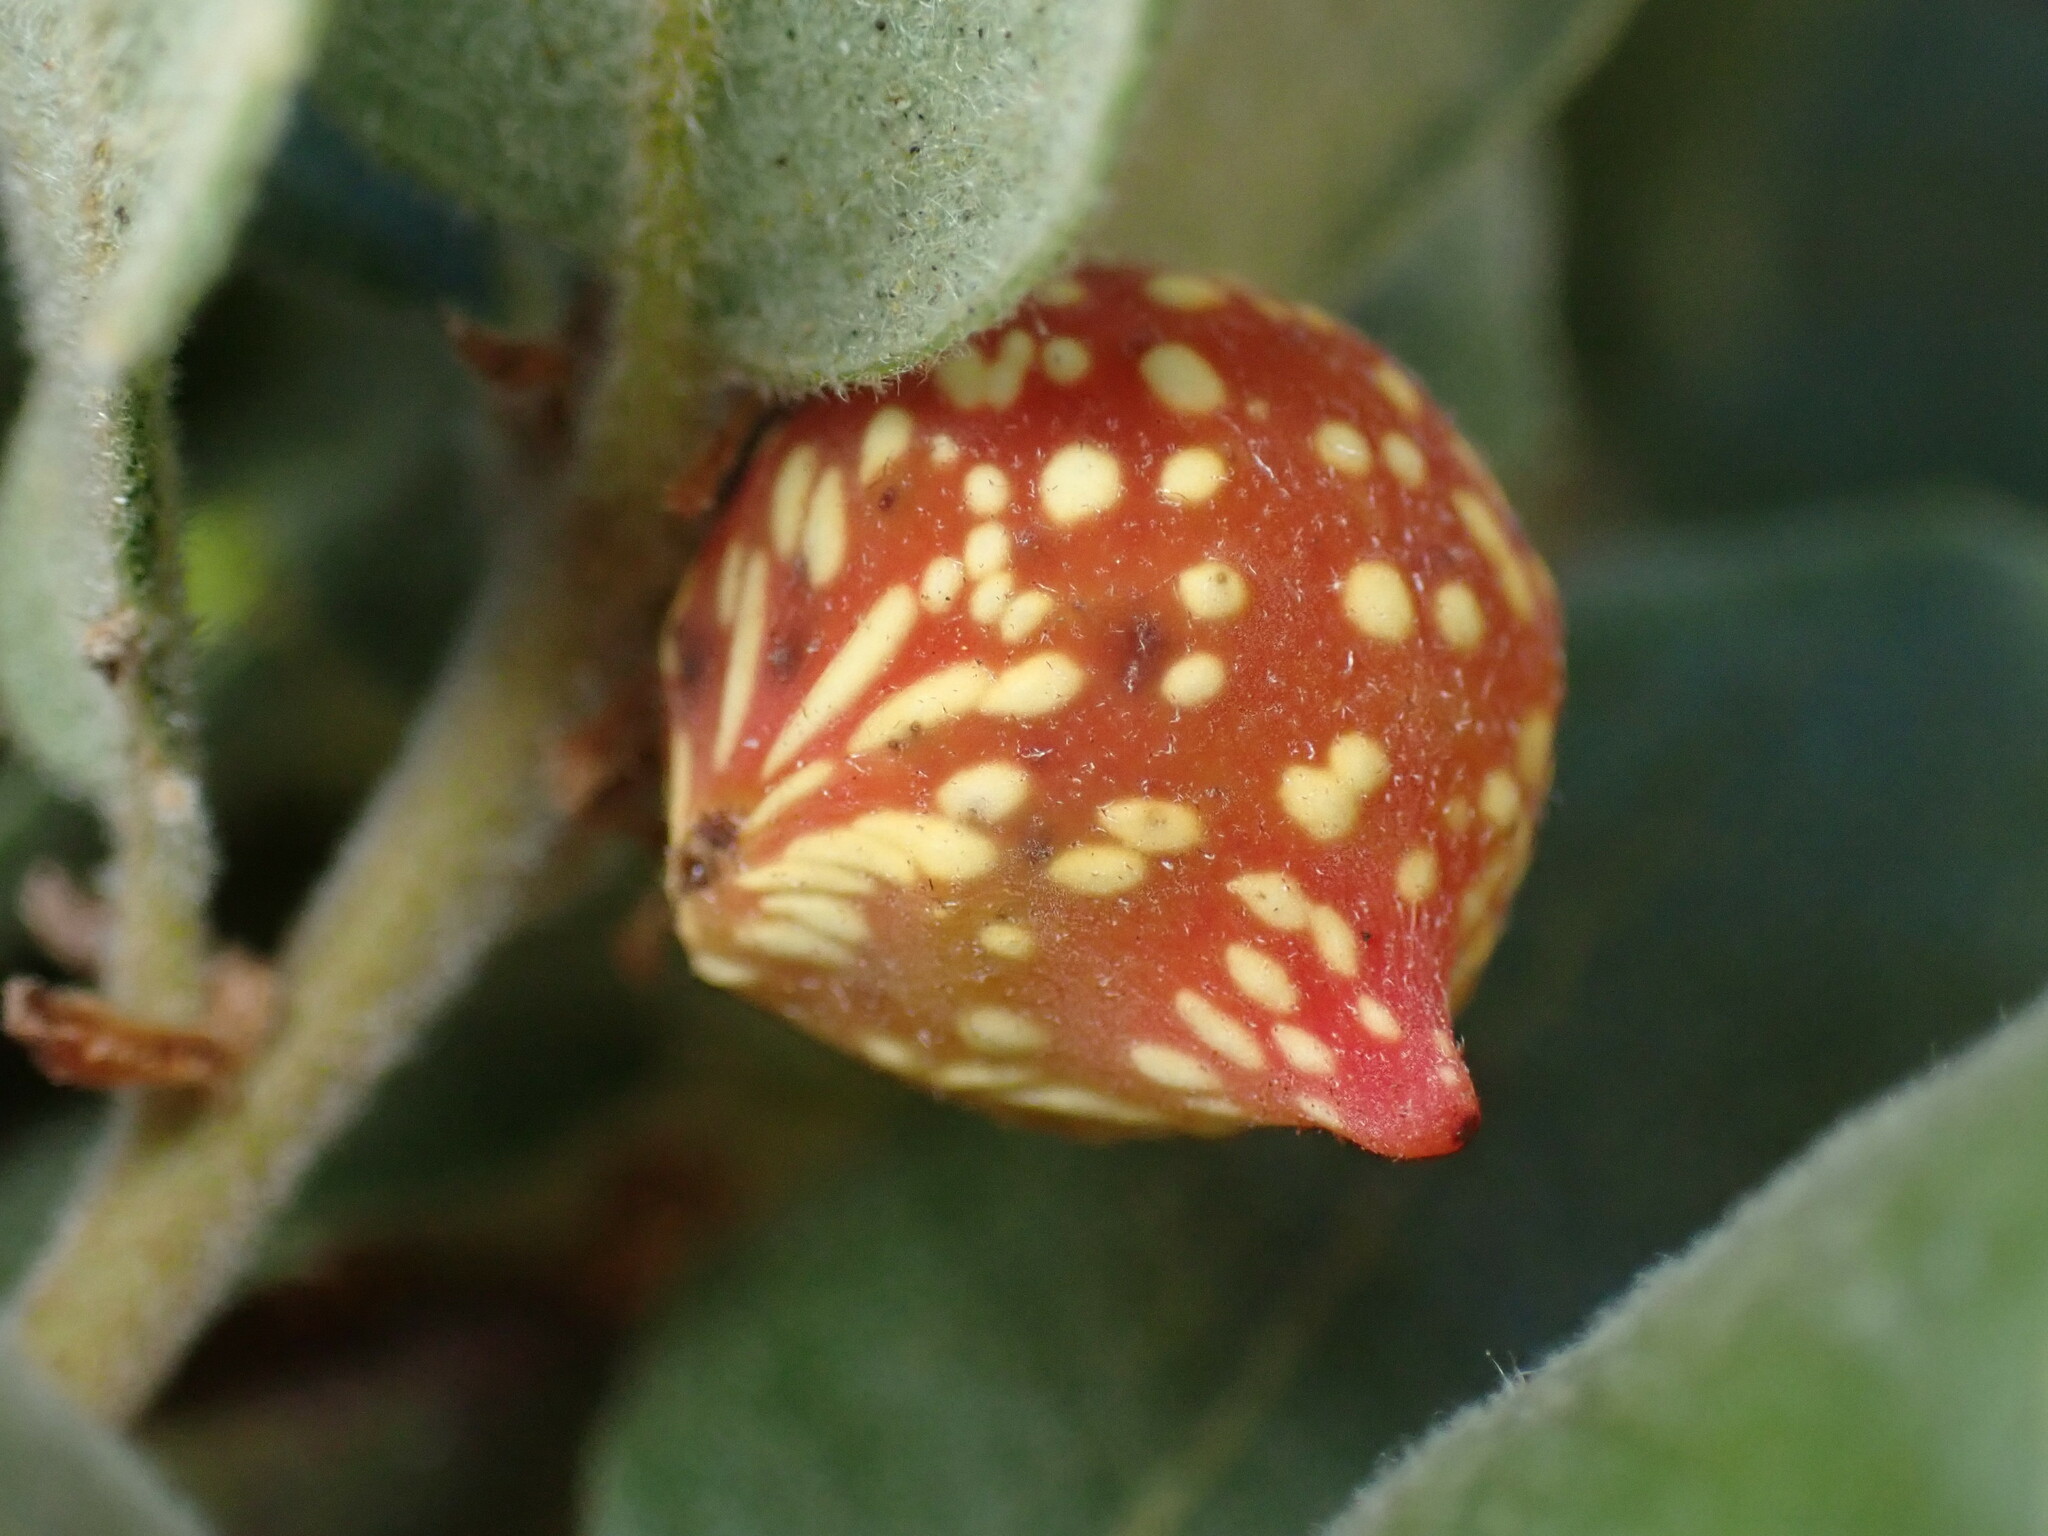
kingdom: Animalia
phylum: Arthropoda
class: Insecta
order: Hymenoptera
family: Cynipidae
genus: Burnettweldia
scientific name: Burnettweldia
